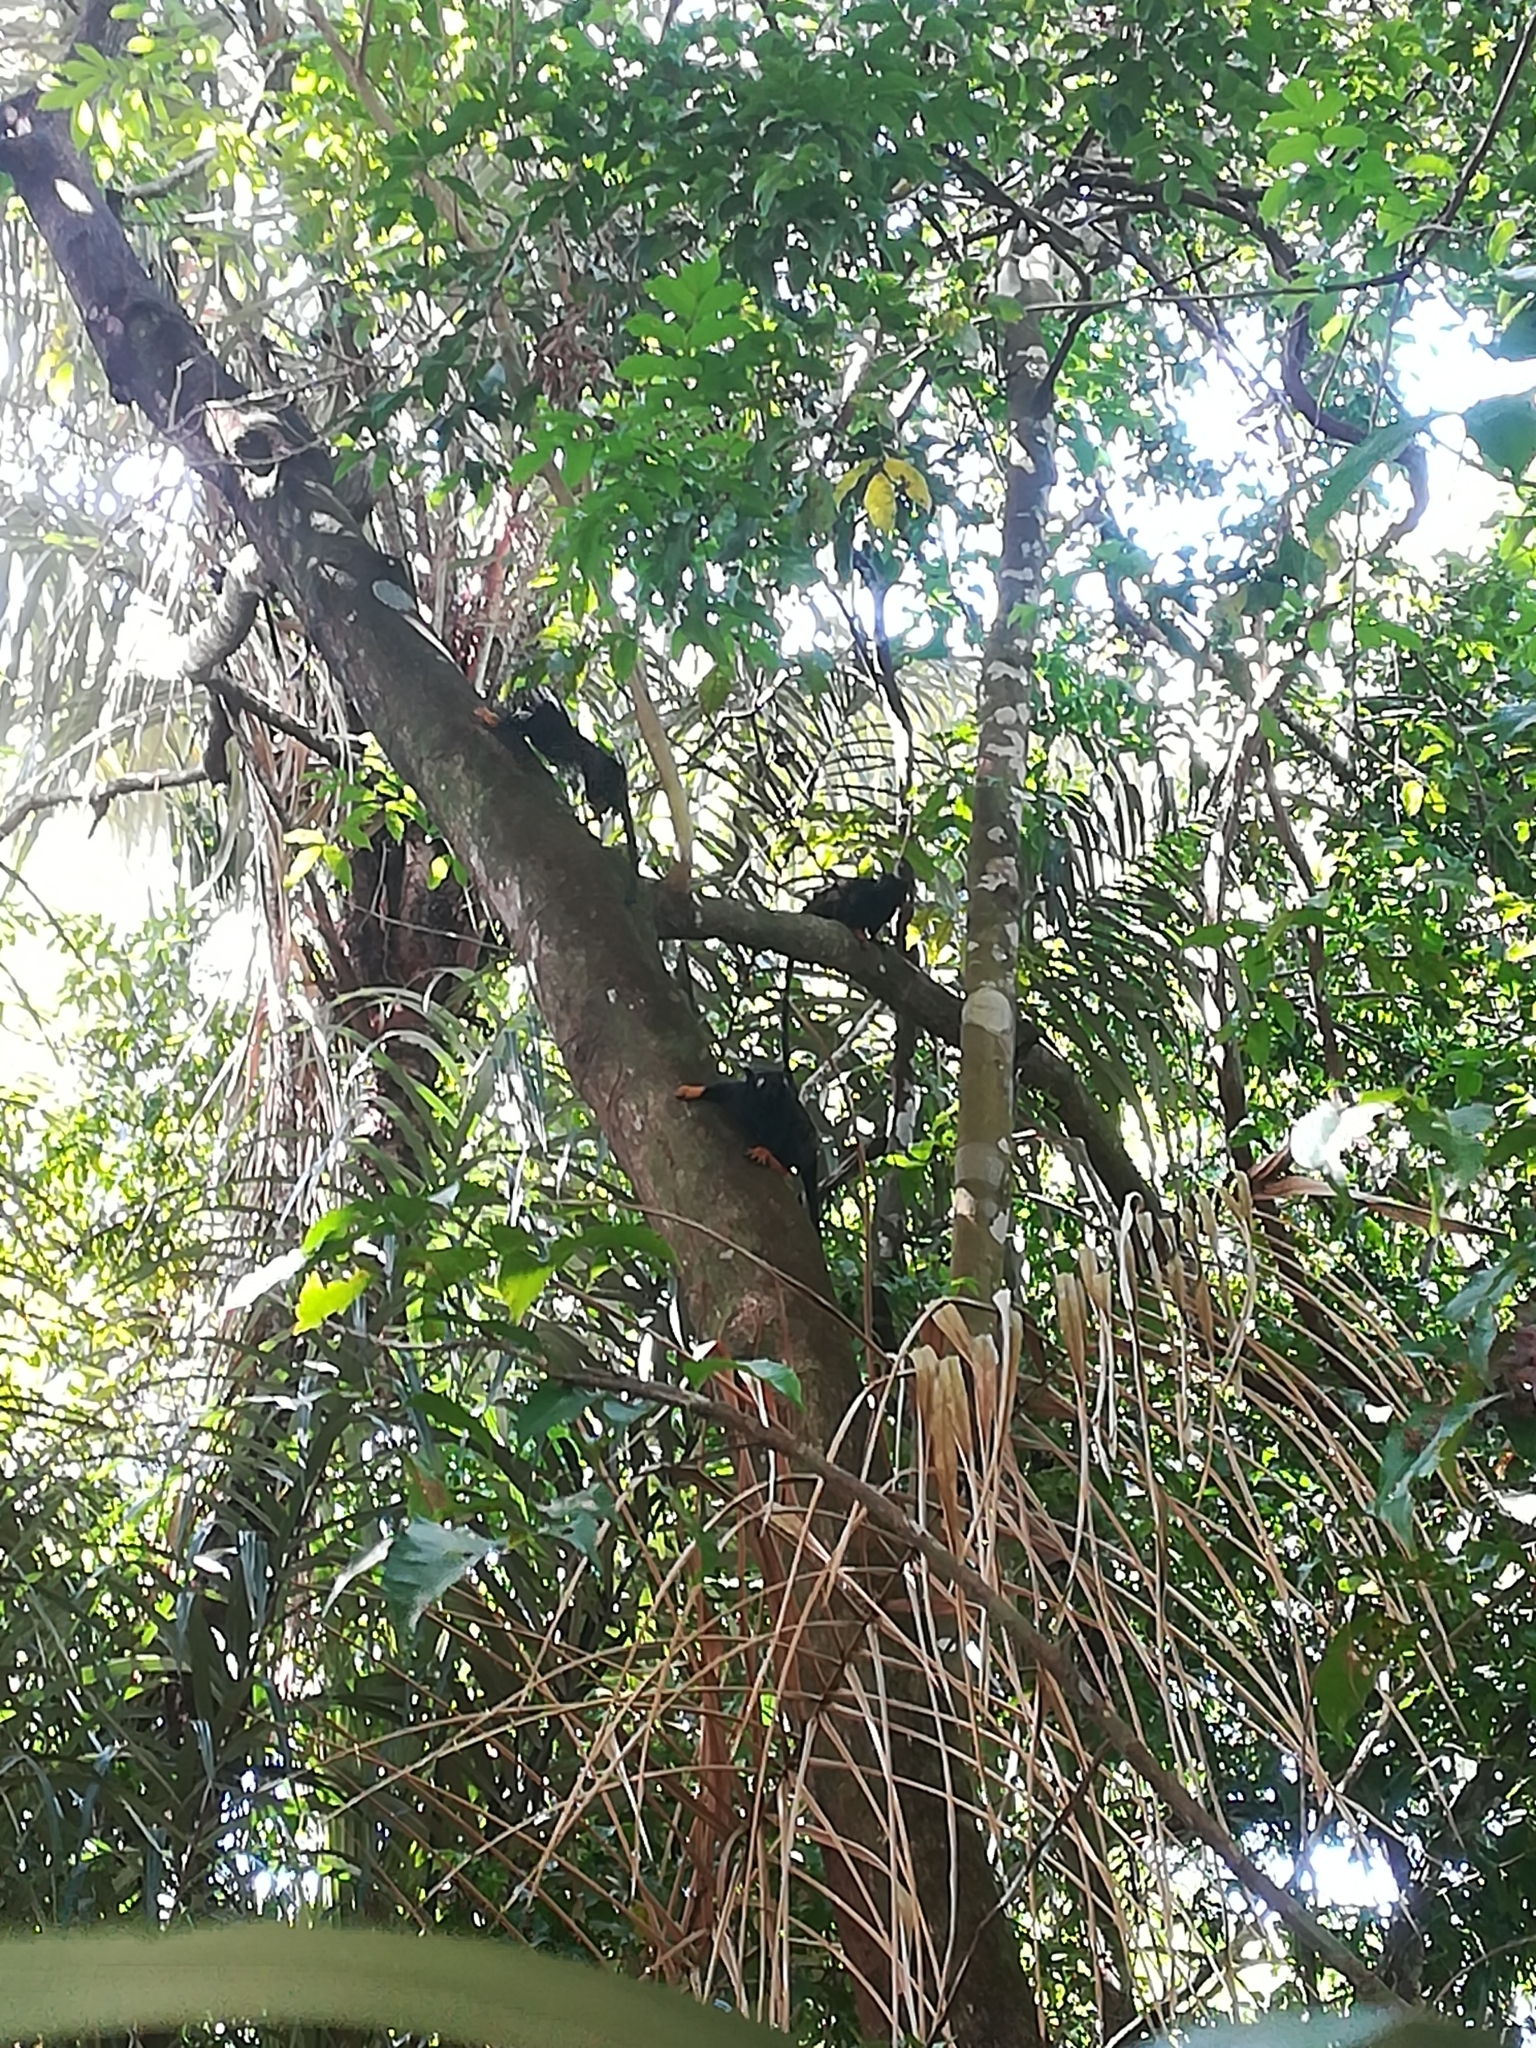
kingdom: Animalia
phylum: Chordata
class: Mammalia
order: Primates
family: Callitrichidae
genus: Saguinus
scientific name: Saguinus midas
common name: Red-handed tamarin
